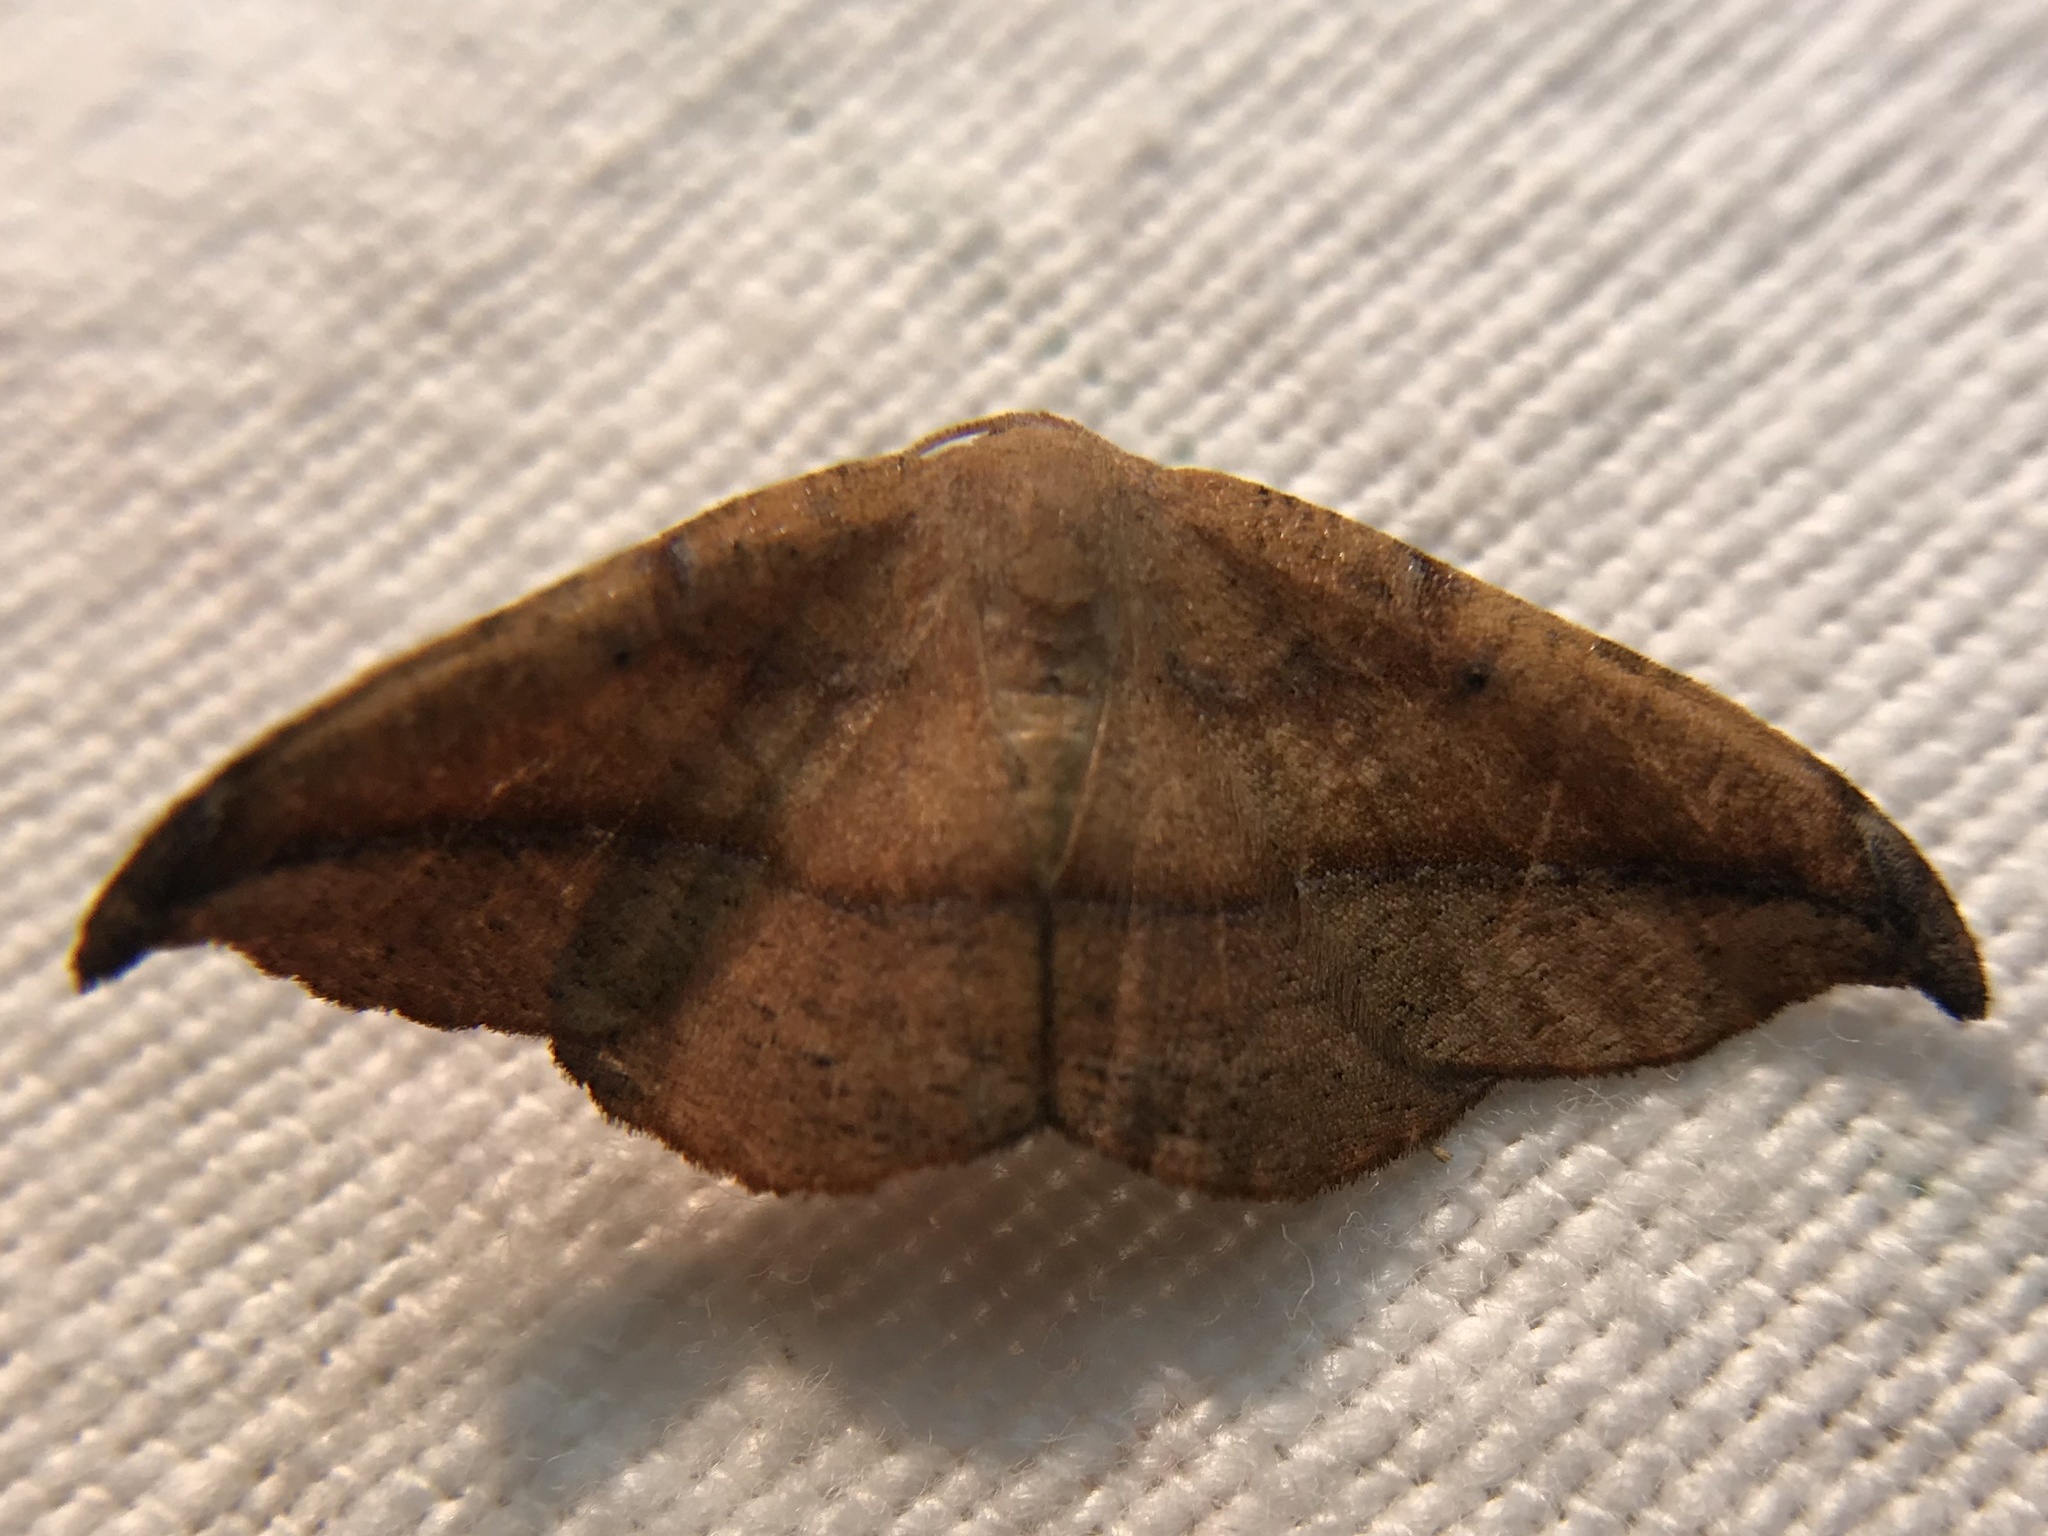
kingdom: Animalia
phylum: Arthropoda
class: Insecta
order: Lepidoptera
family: Geometridae
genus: Patalene
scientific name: Patalene olyzonaria
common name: Juniper geometer moth
